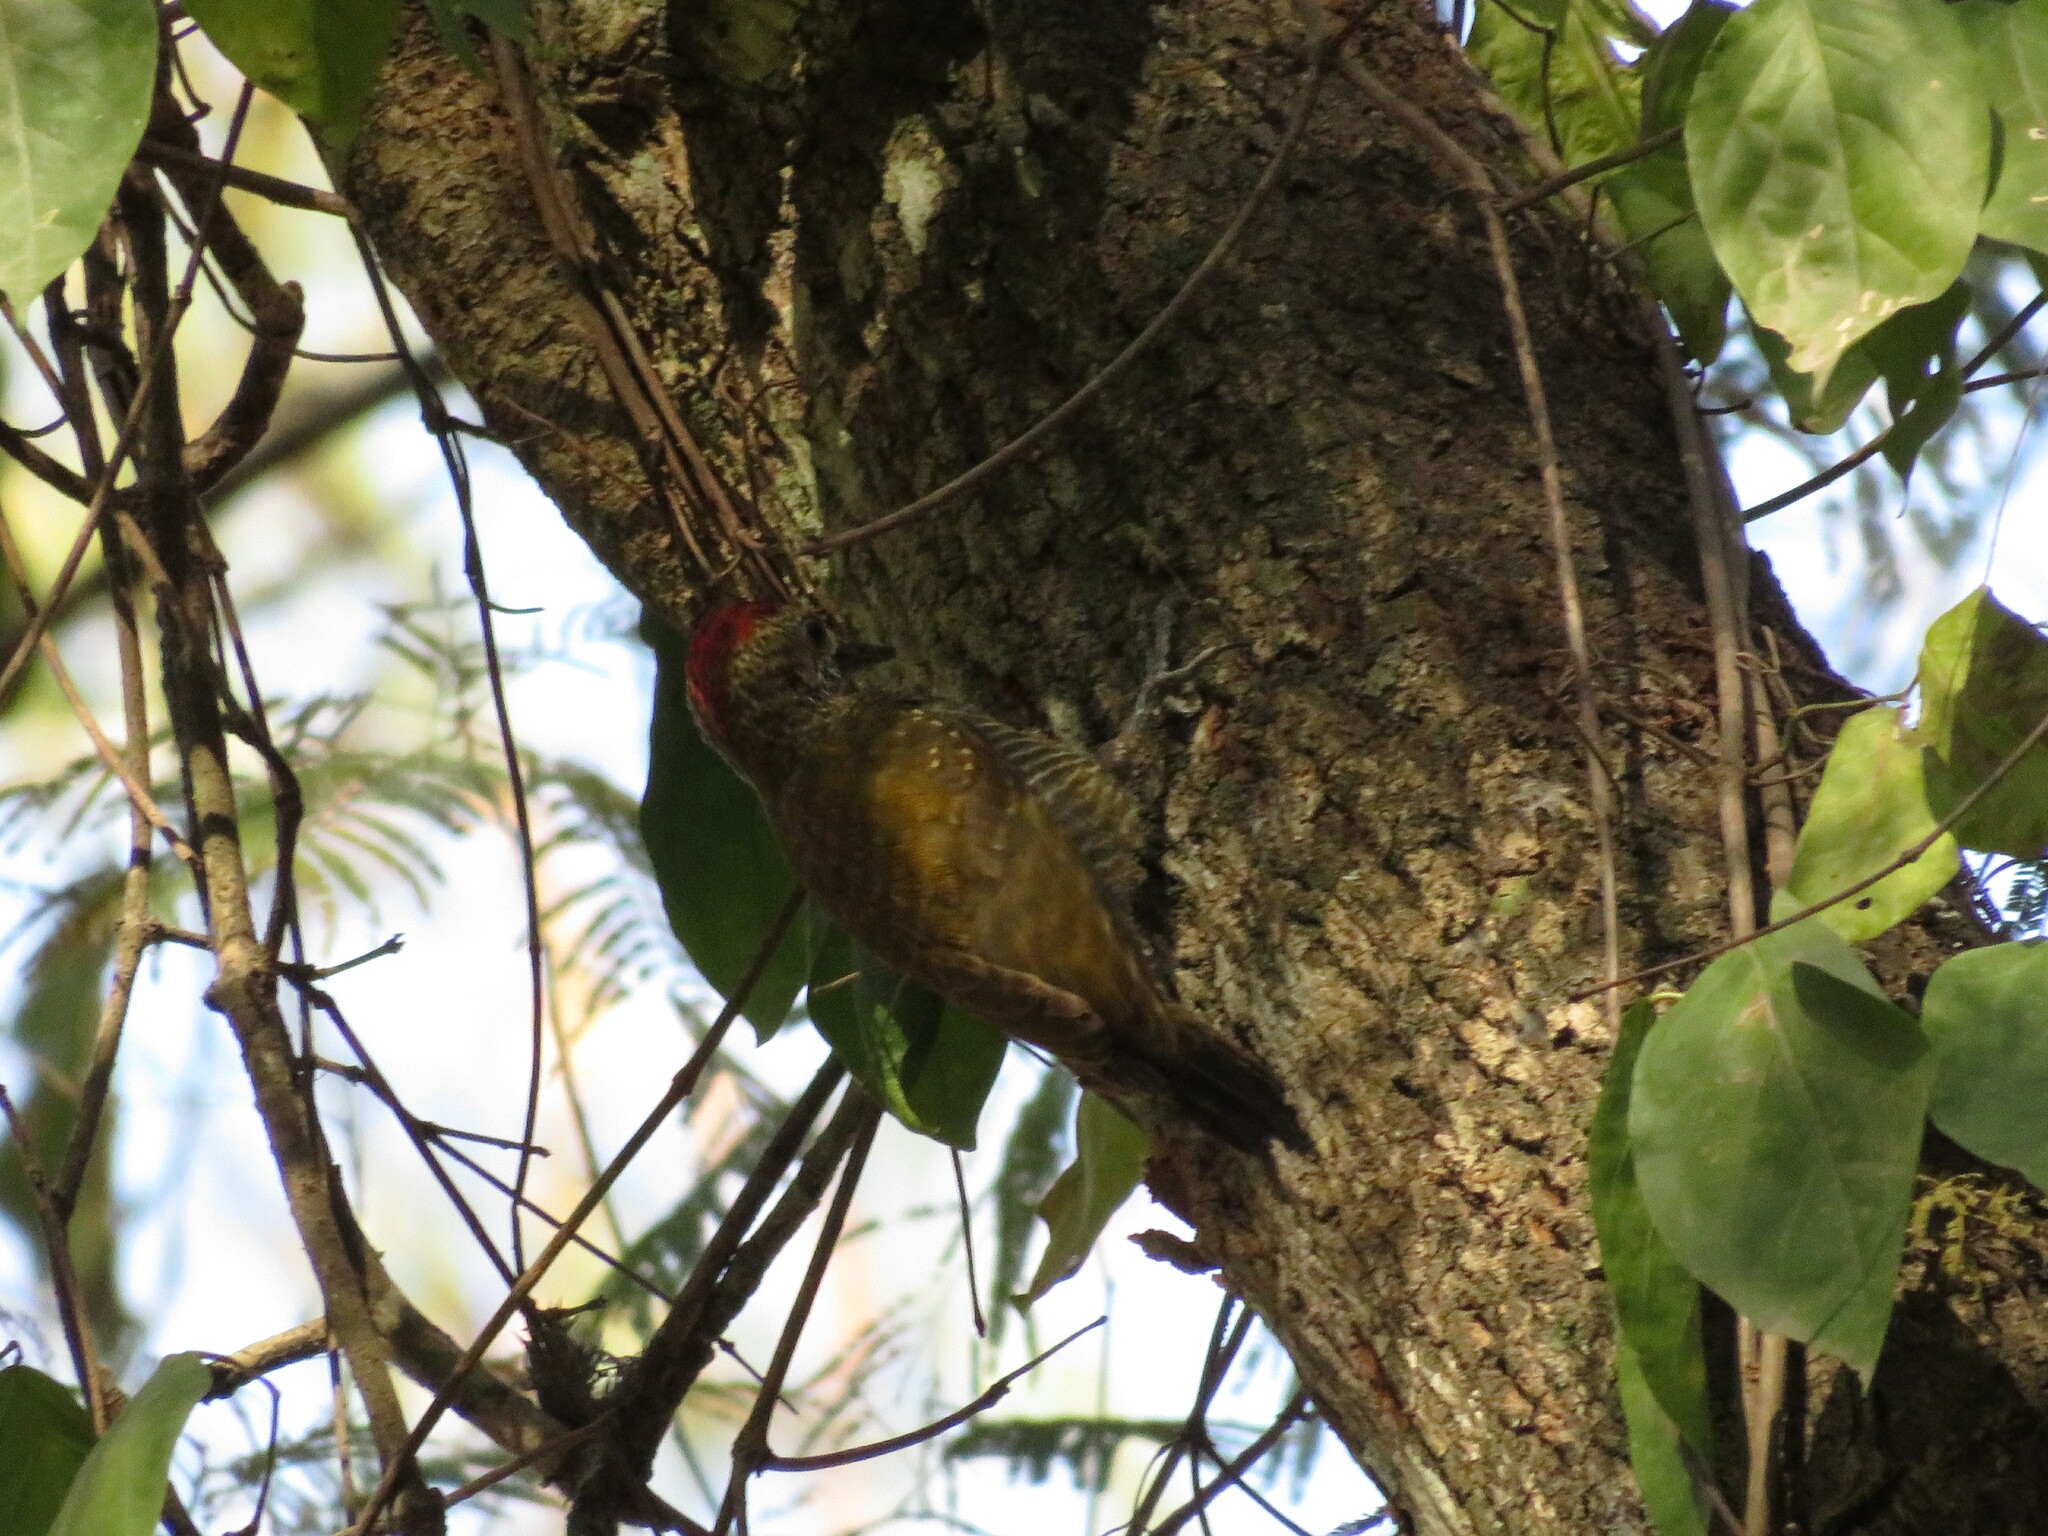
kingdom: Animalia
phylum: Chordata
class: Aves
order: Piciformes
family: Picidae
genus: Veniliornis
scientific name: Veniliornis frontalis
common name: Dot-fronted woodpecker
